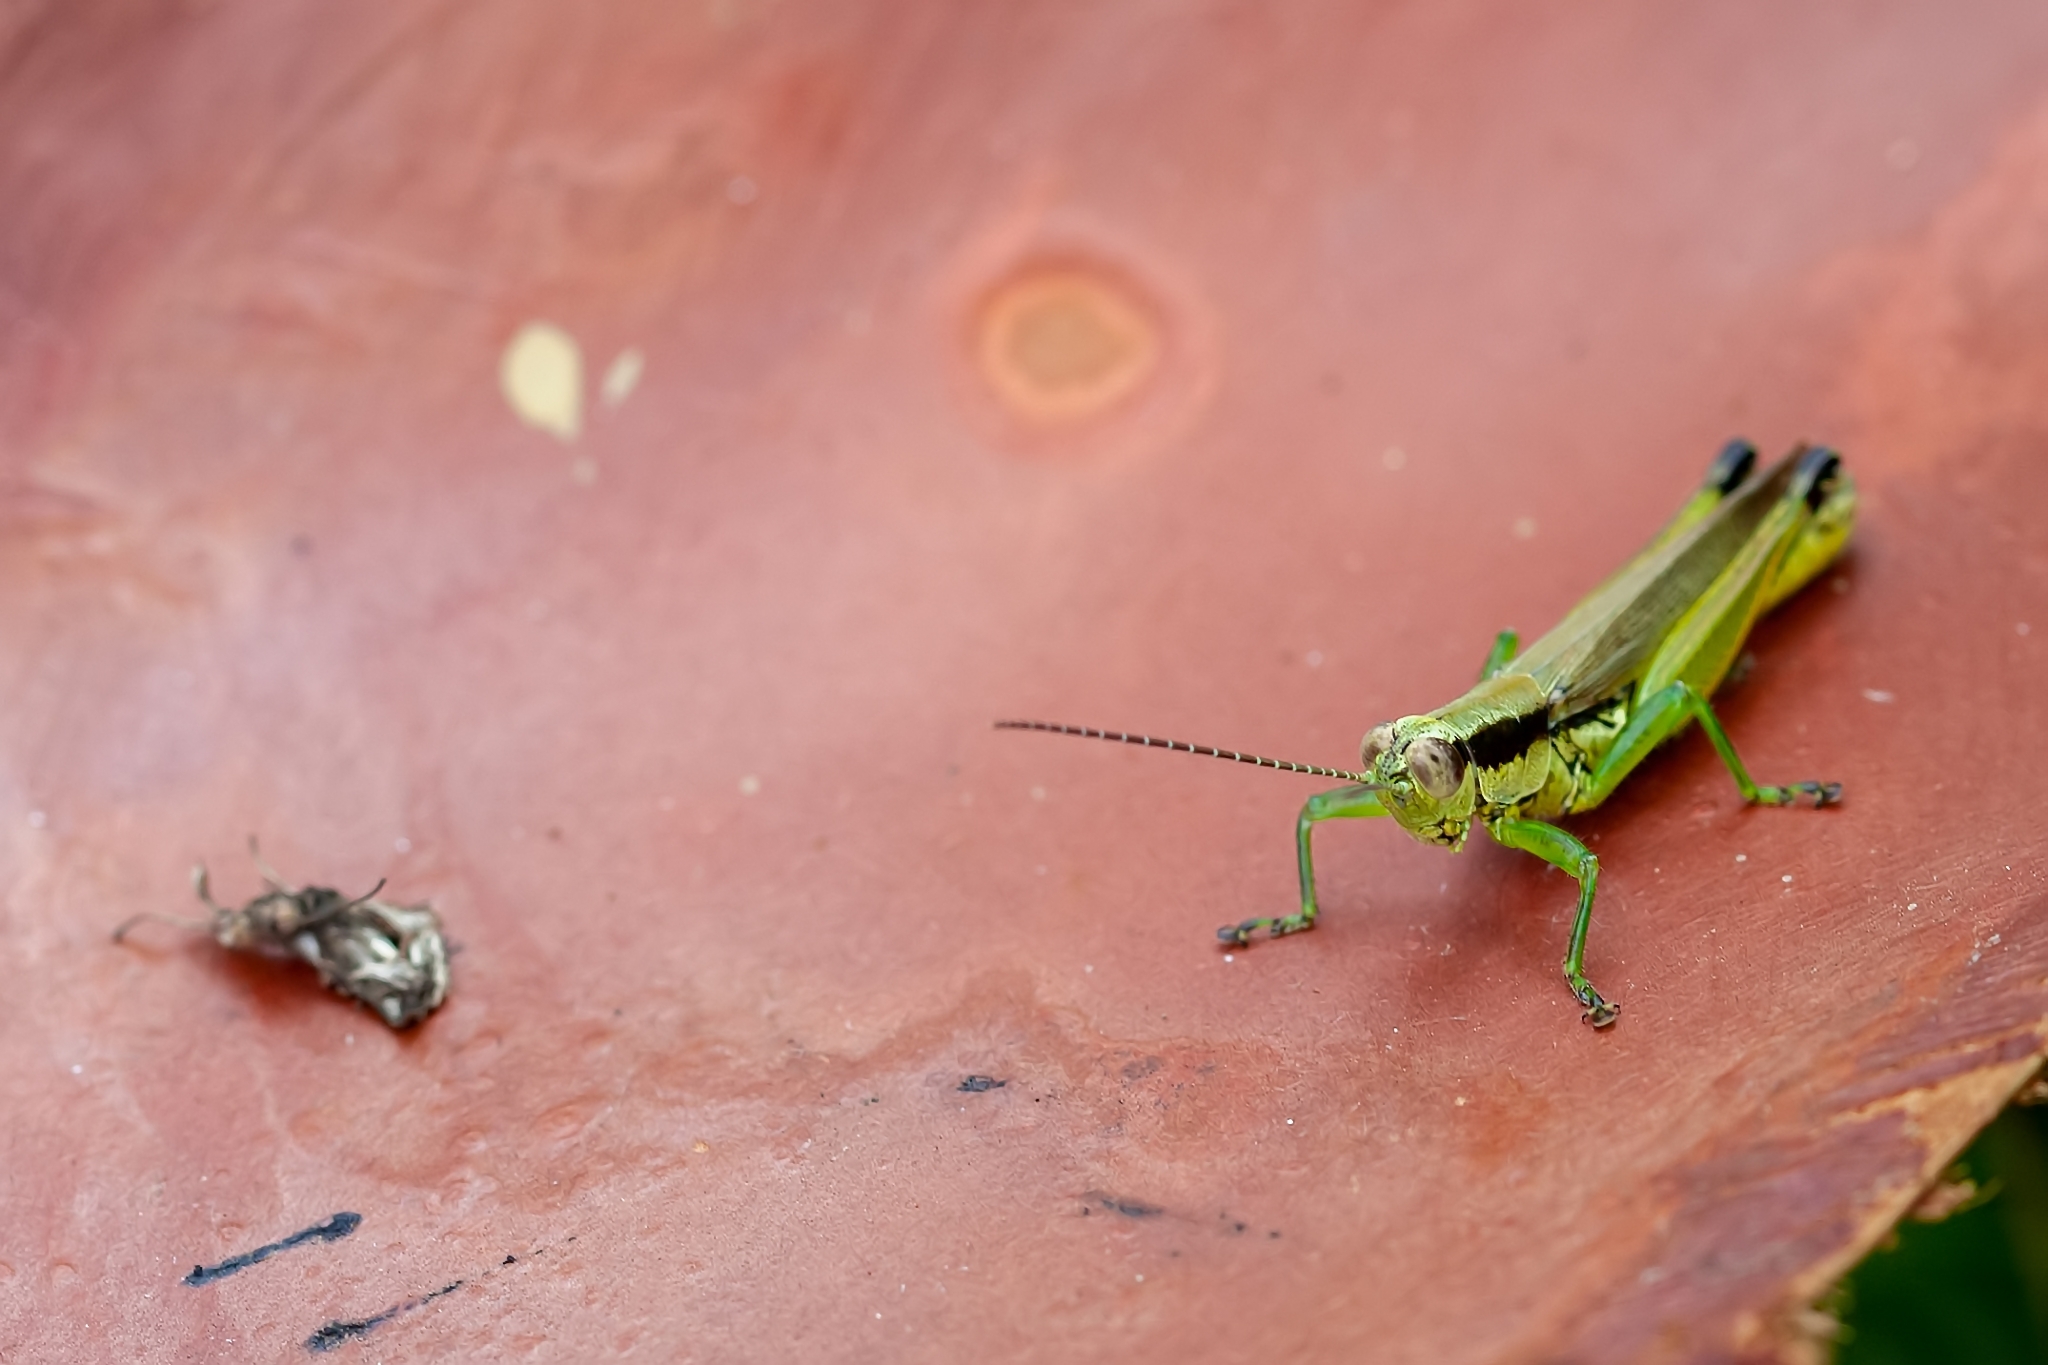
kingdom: Animalia
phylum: Arthropoda
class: Insecta
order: Orthoptera
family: Acrididae
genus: Paroxya
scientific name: Paroxya clavuligera
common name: Olive-green swamp grasshopper
